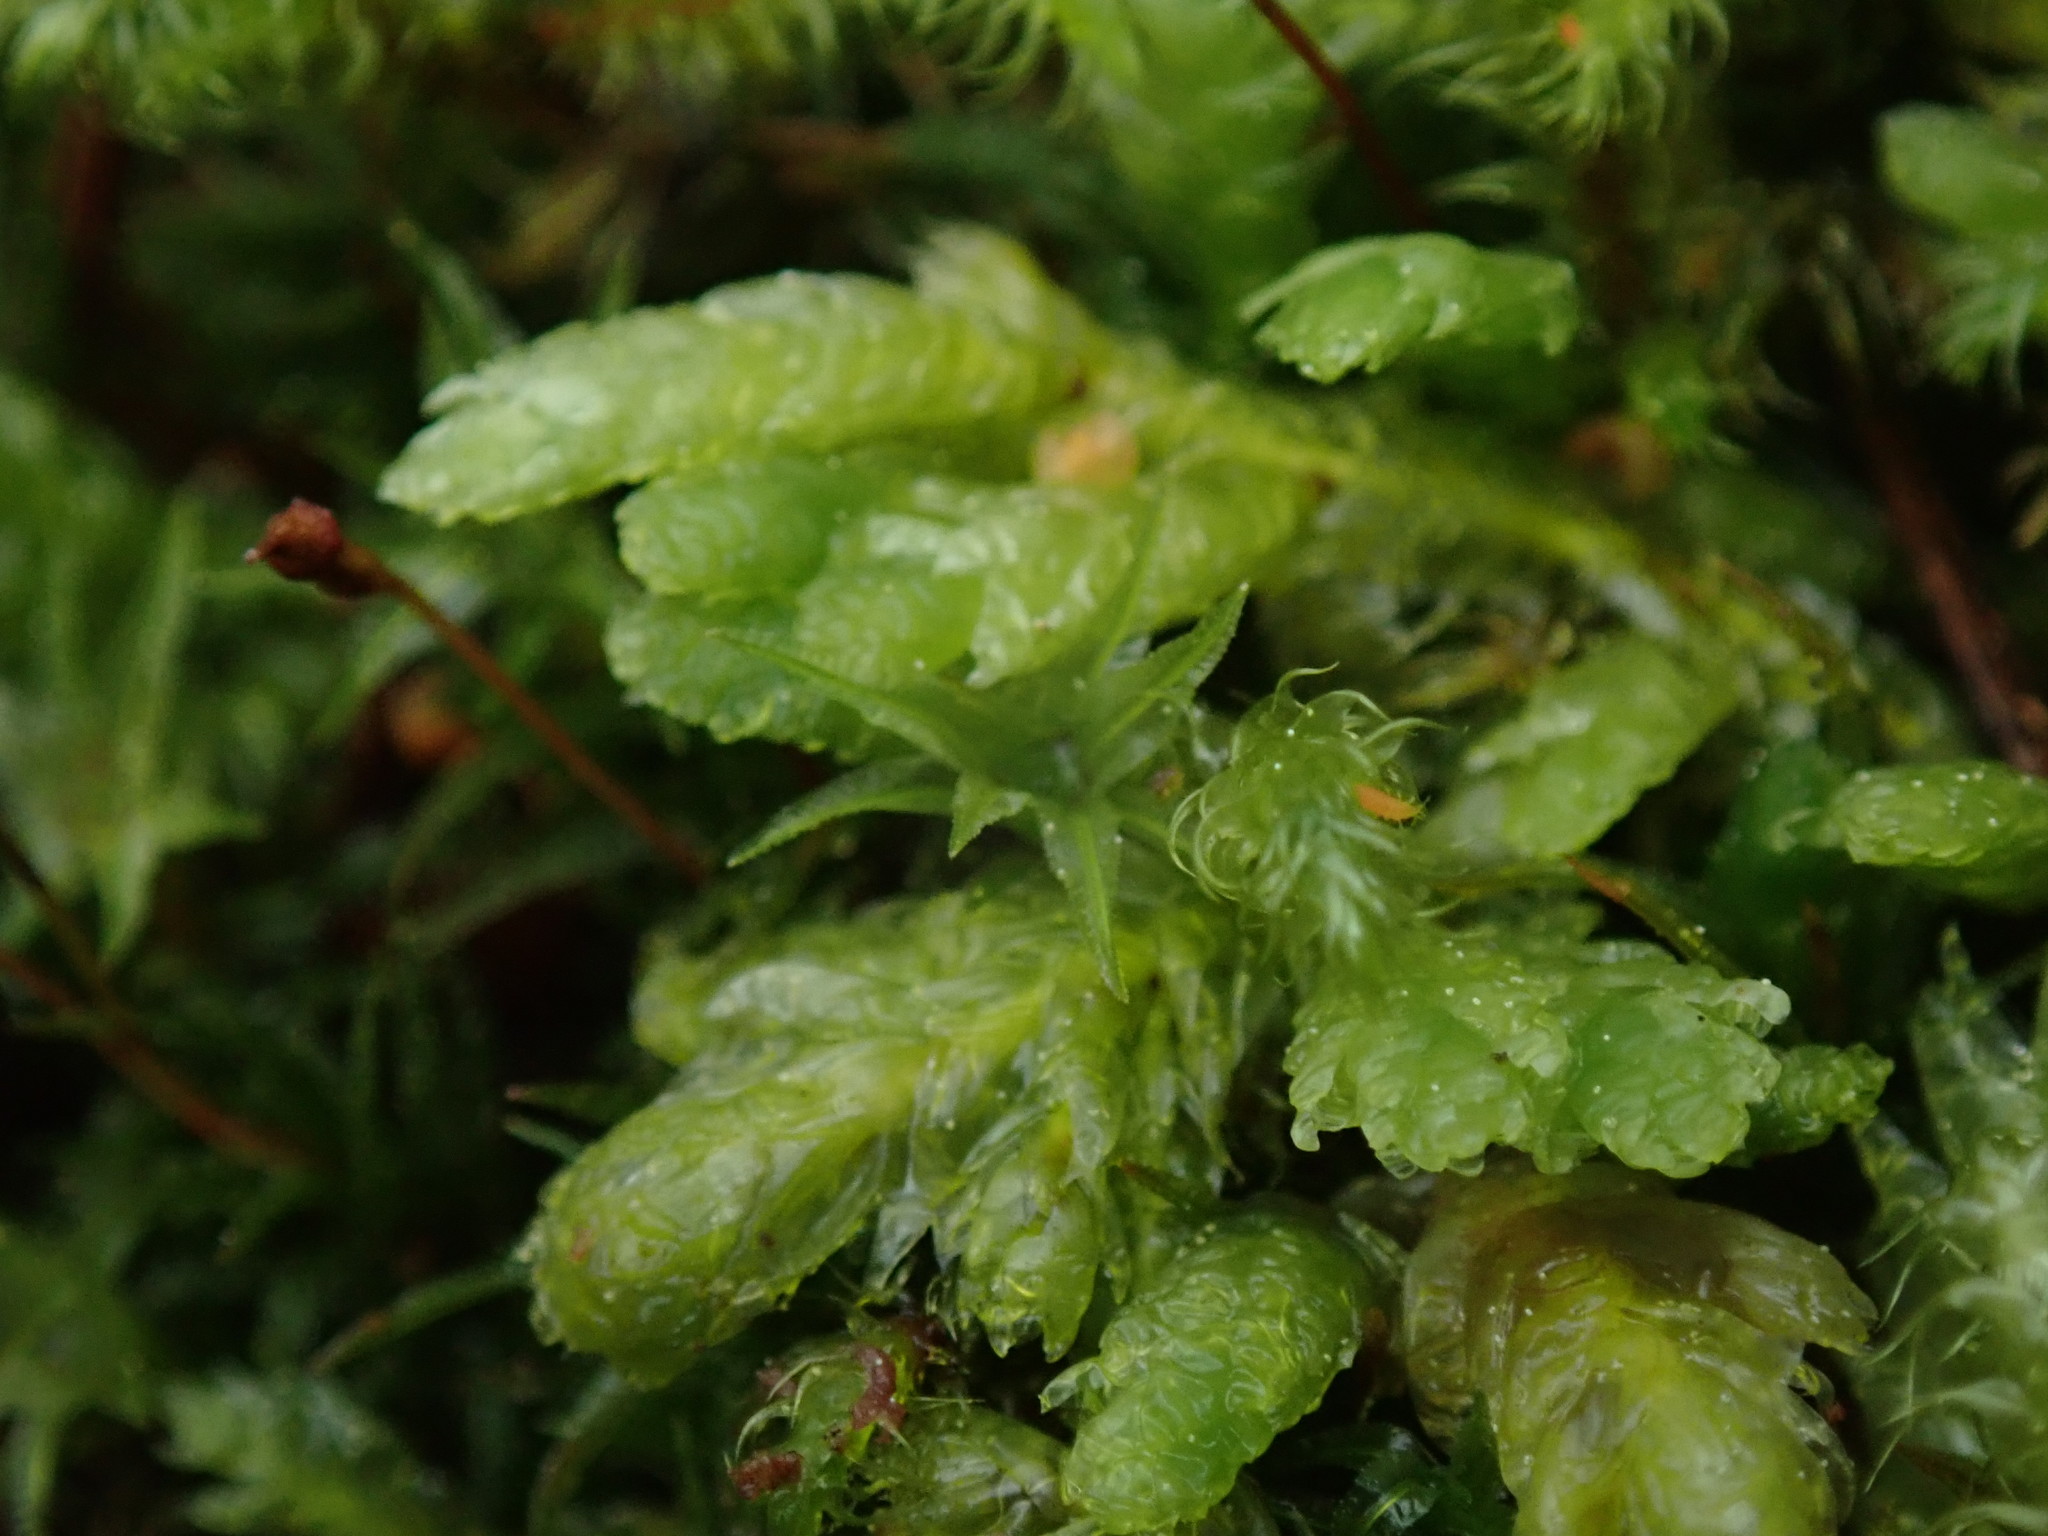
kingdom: Plantae
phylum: Bryophyta
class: Bryopsida
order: Hypnales
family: Plagiotheciaceae
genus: Plagiothecium
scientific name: Plagiothecium undulatum
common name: Waved silk-moss
